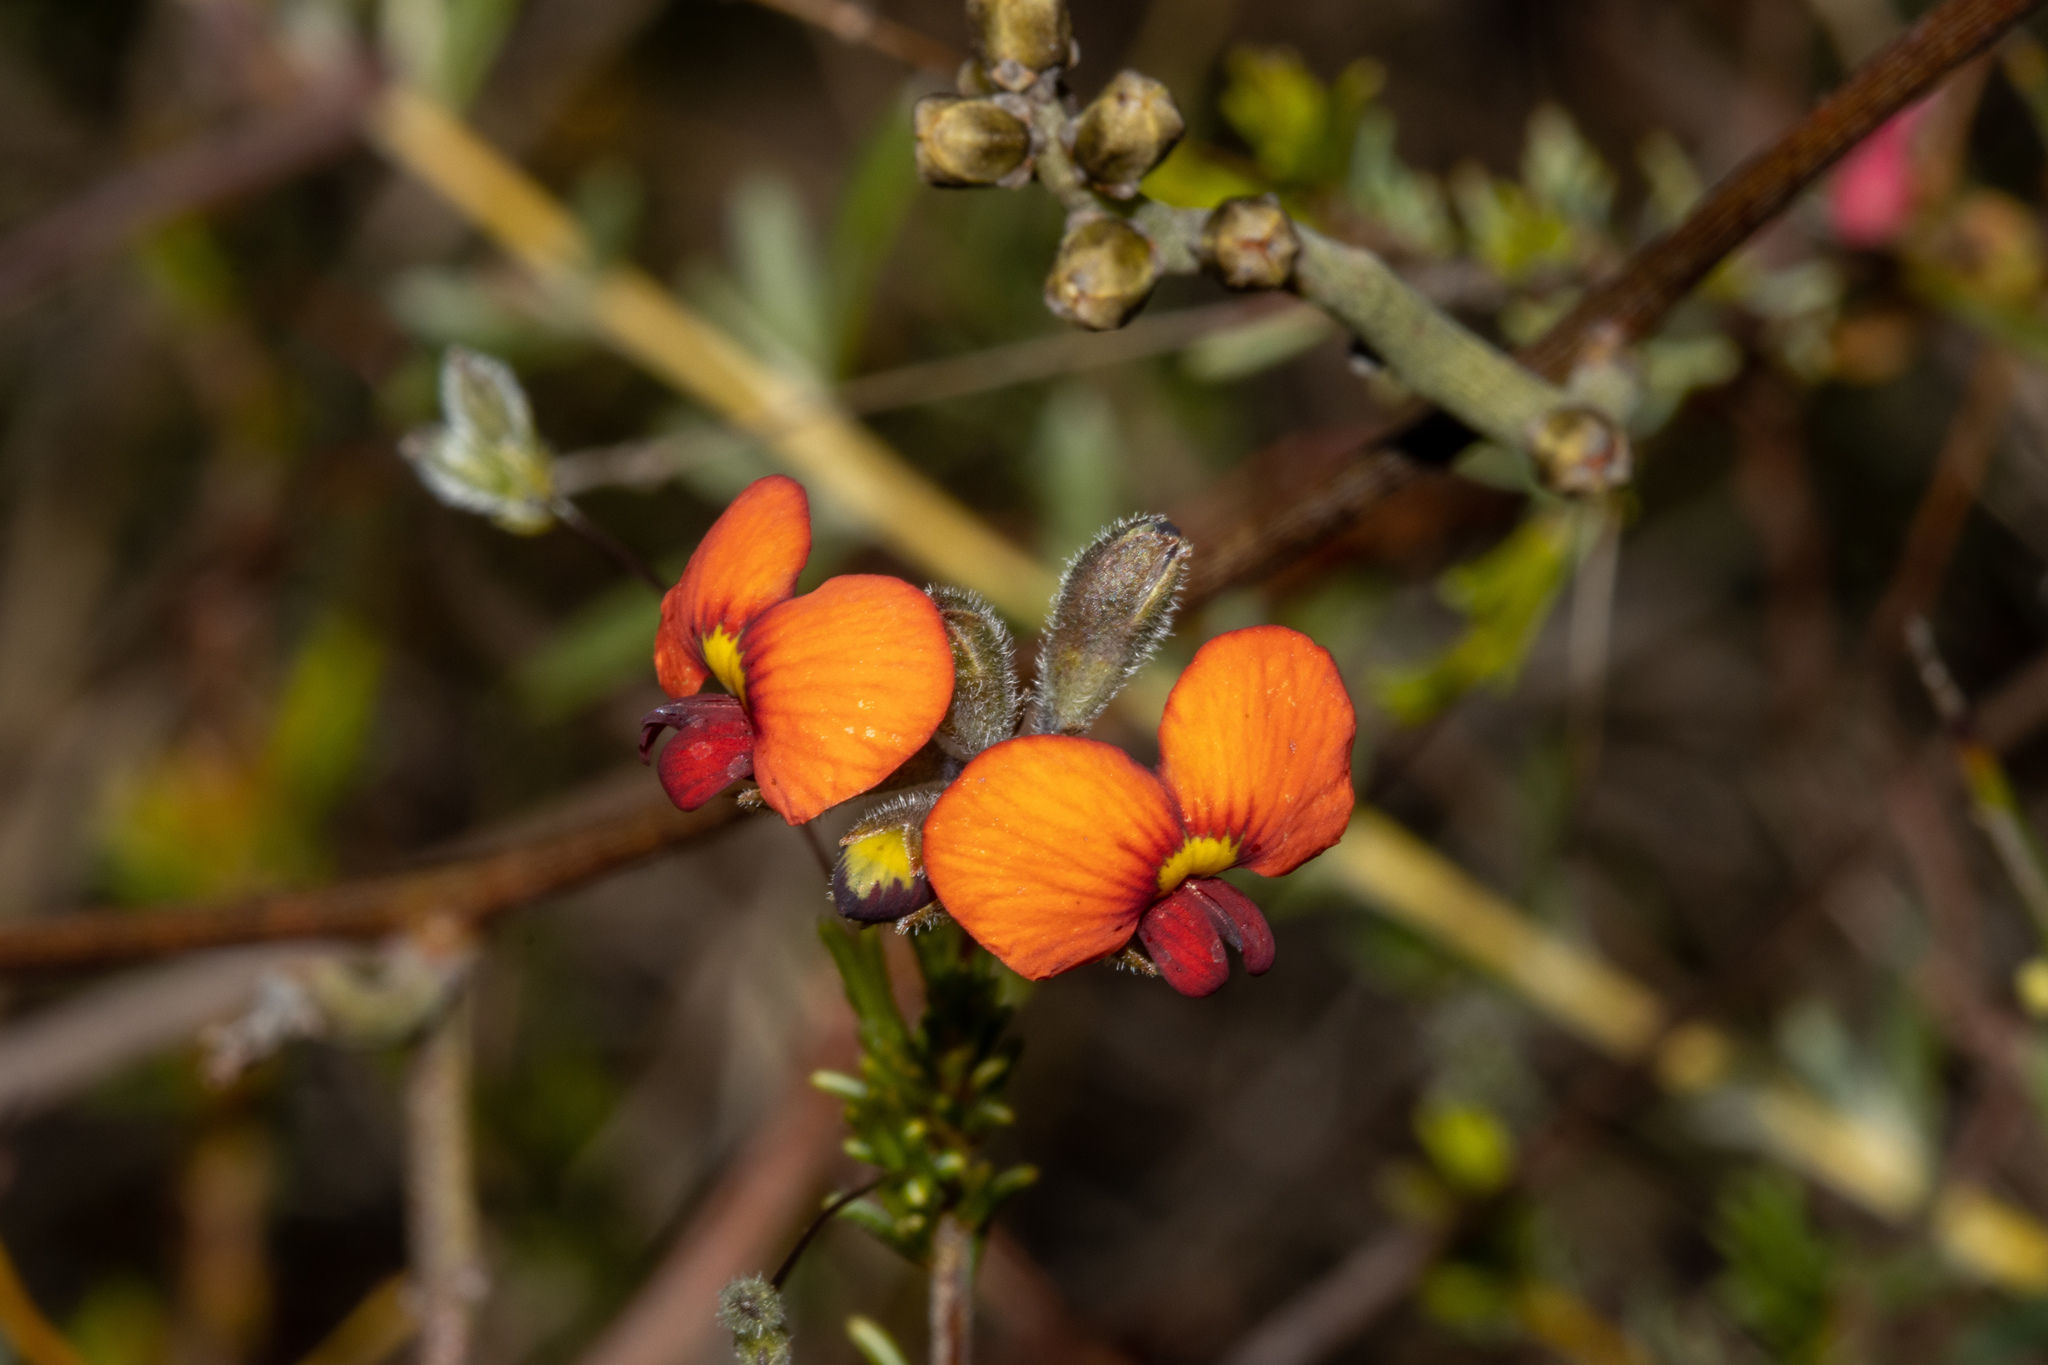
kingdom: Plantae
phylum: Tracheophyta
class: Magnoliopsida
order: Fabales
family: Fabaceae
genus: Dillwynia
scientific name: Dillwynia hispida
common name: Red parrot-pea
